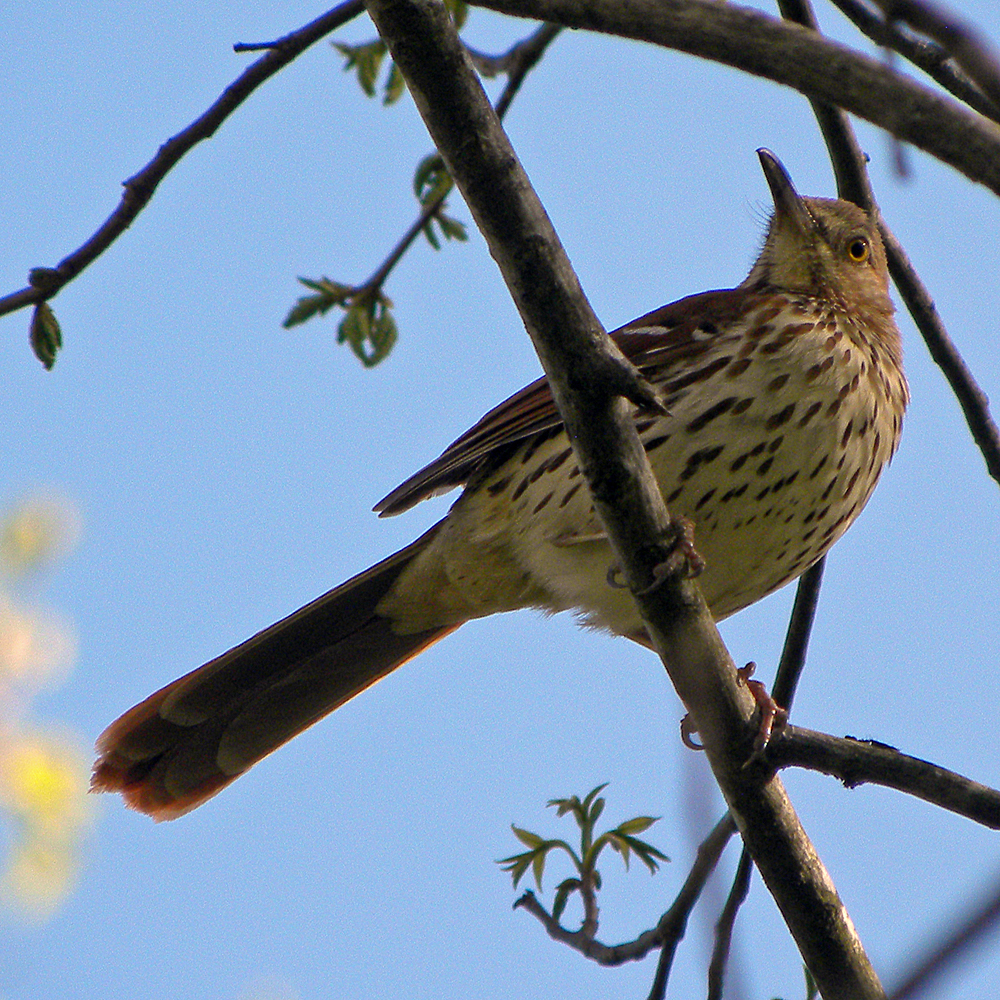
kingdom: Animalia
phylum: Chordata
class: Aves
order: Passeriformes
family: Mimidae
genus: Toxostoma
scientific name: Toxostoma rufum
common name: Brown thrasher
